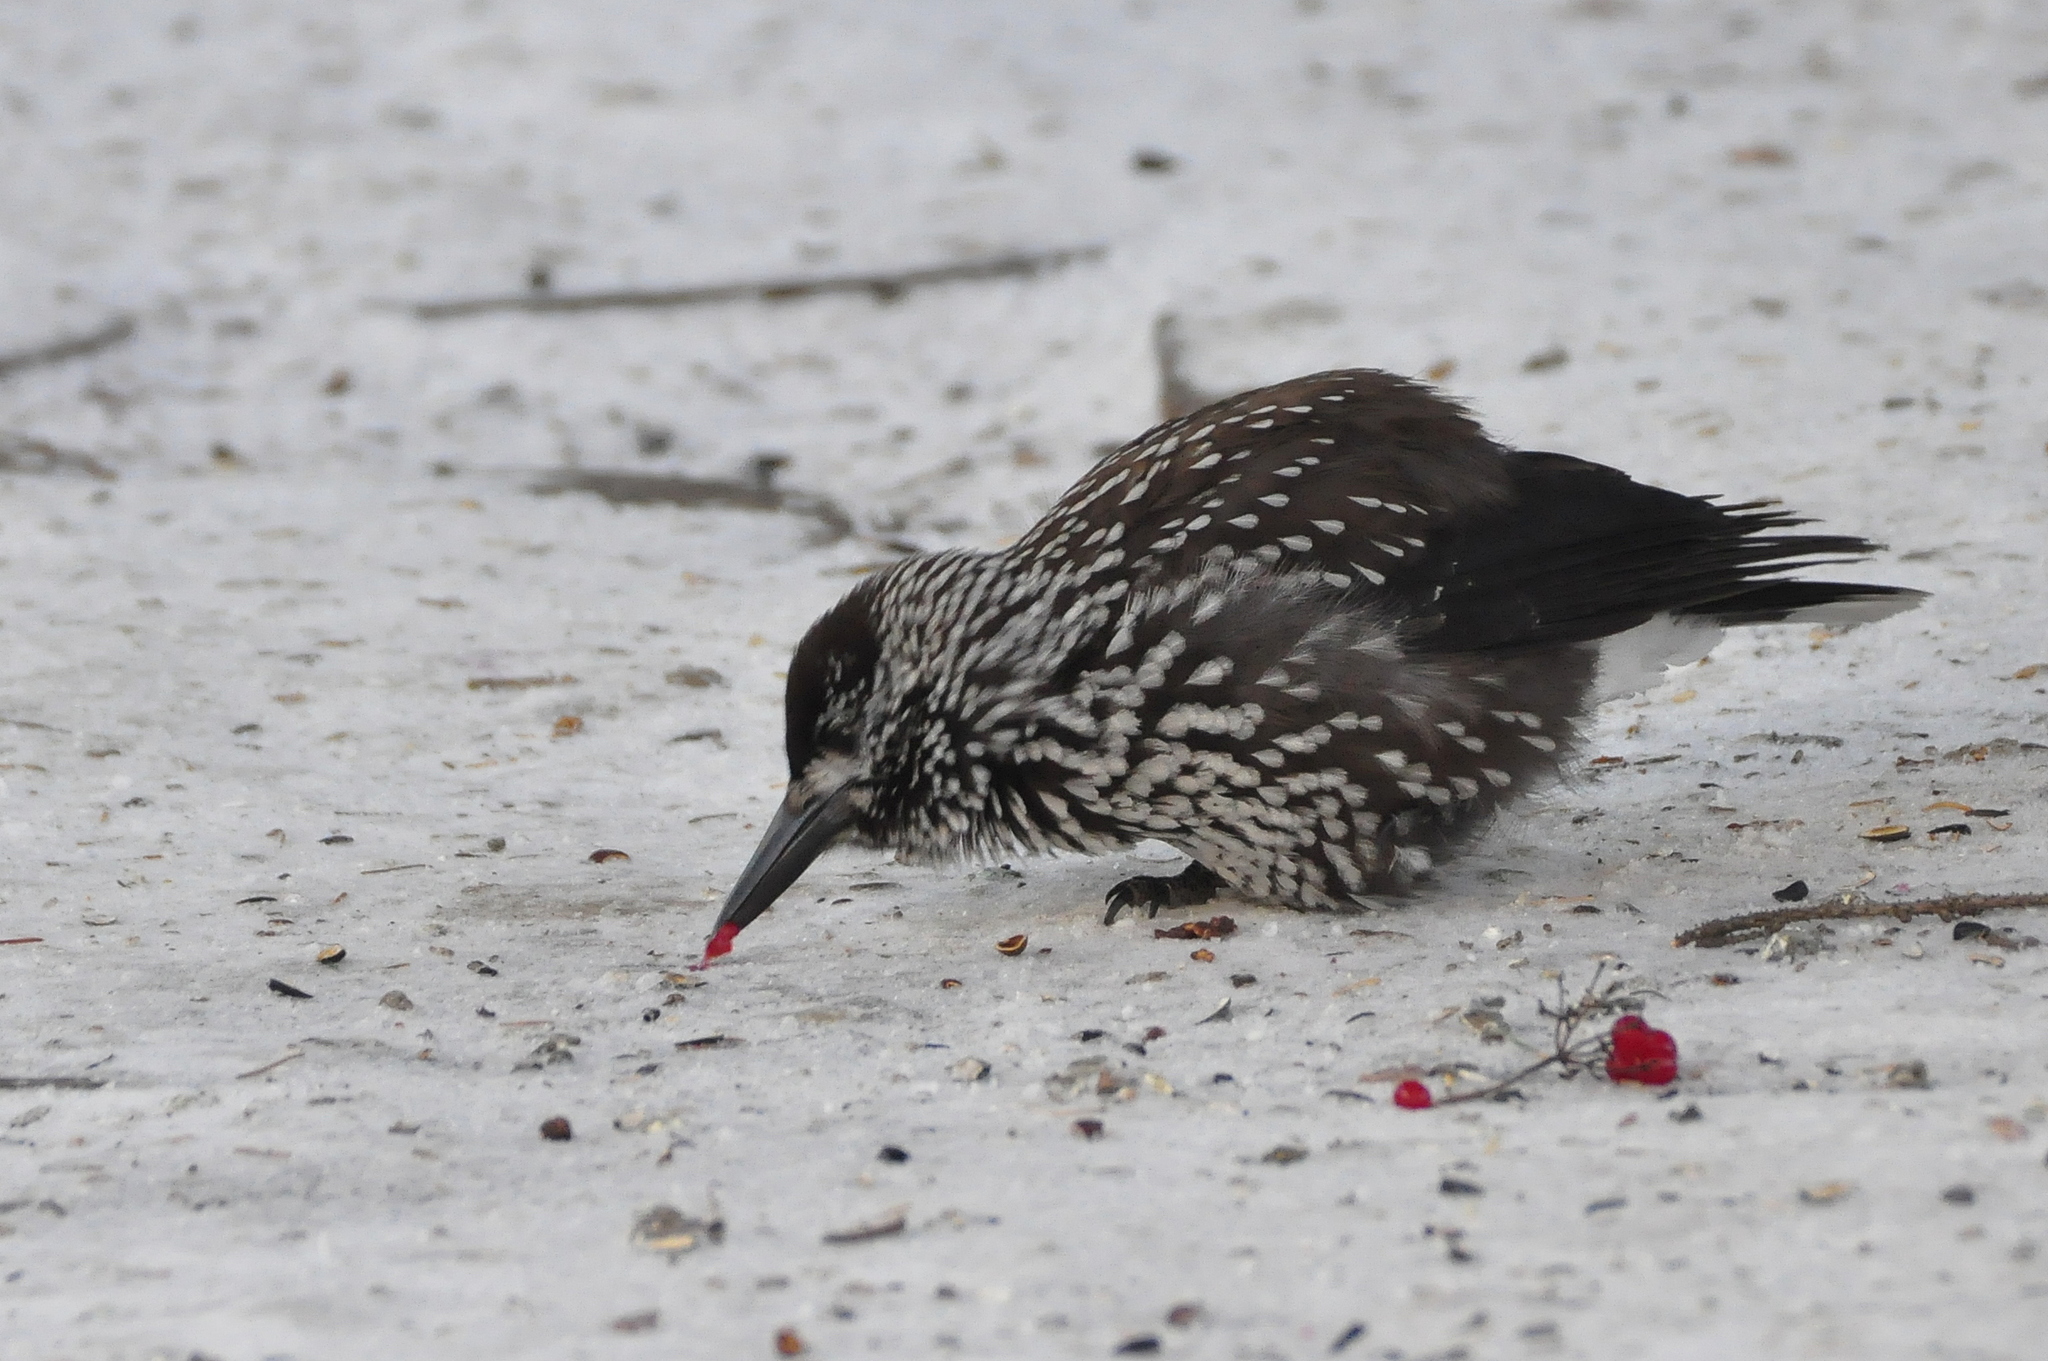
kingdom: Animalia
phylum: Chordata
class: Aves
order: Passeriformes
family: Corvidae
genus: Nucifraga
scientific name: Nucifraga caryocatactes
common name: Spotted nutcracker
